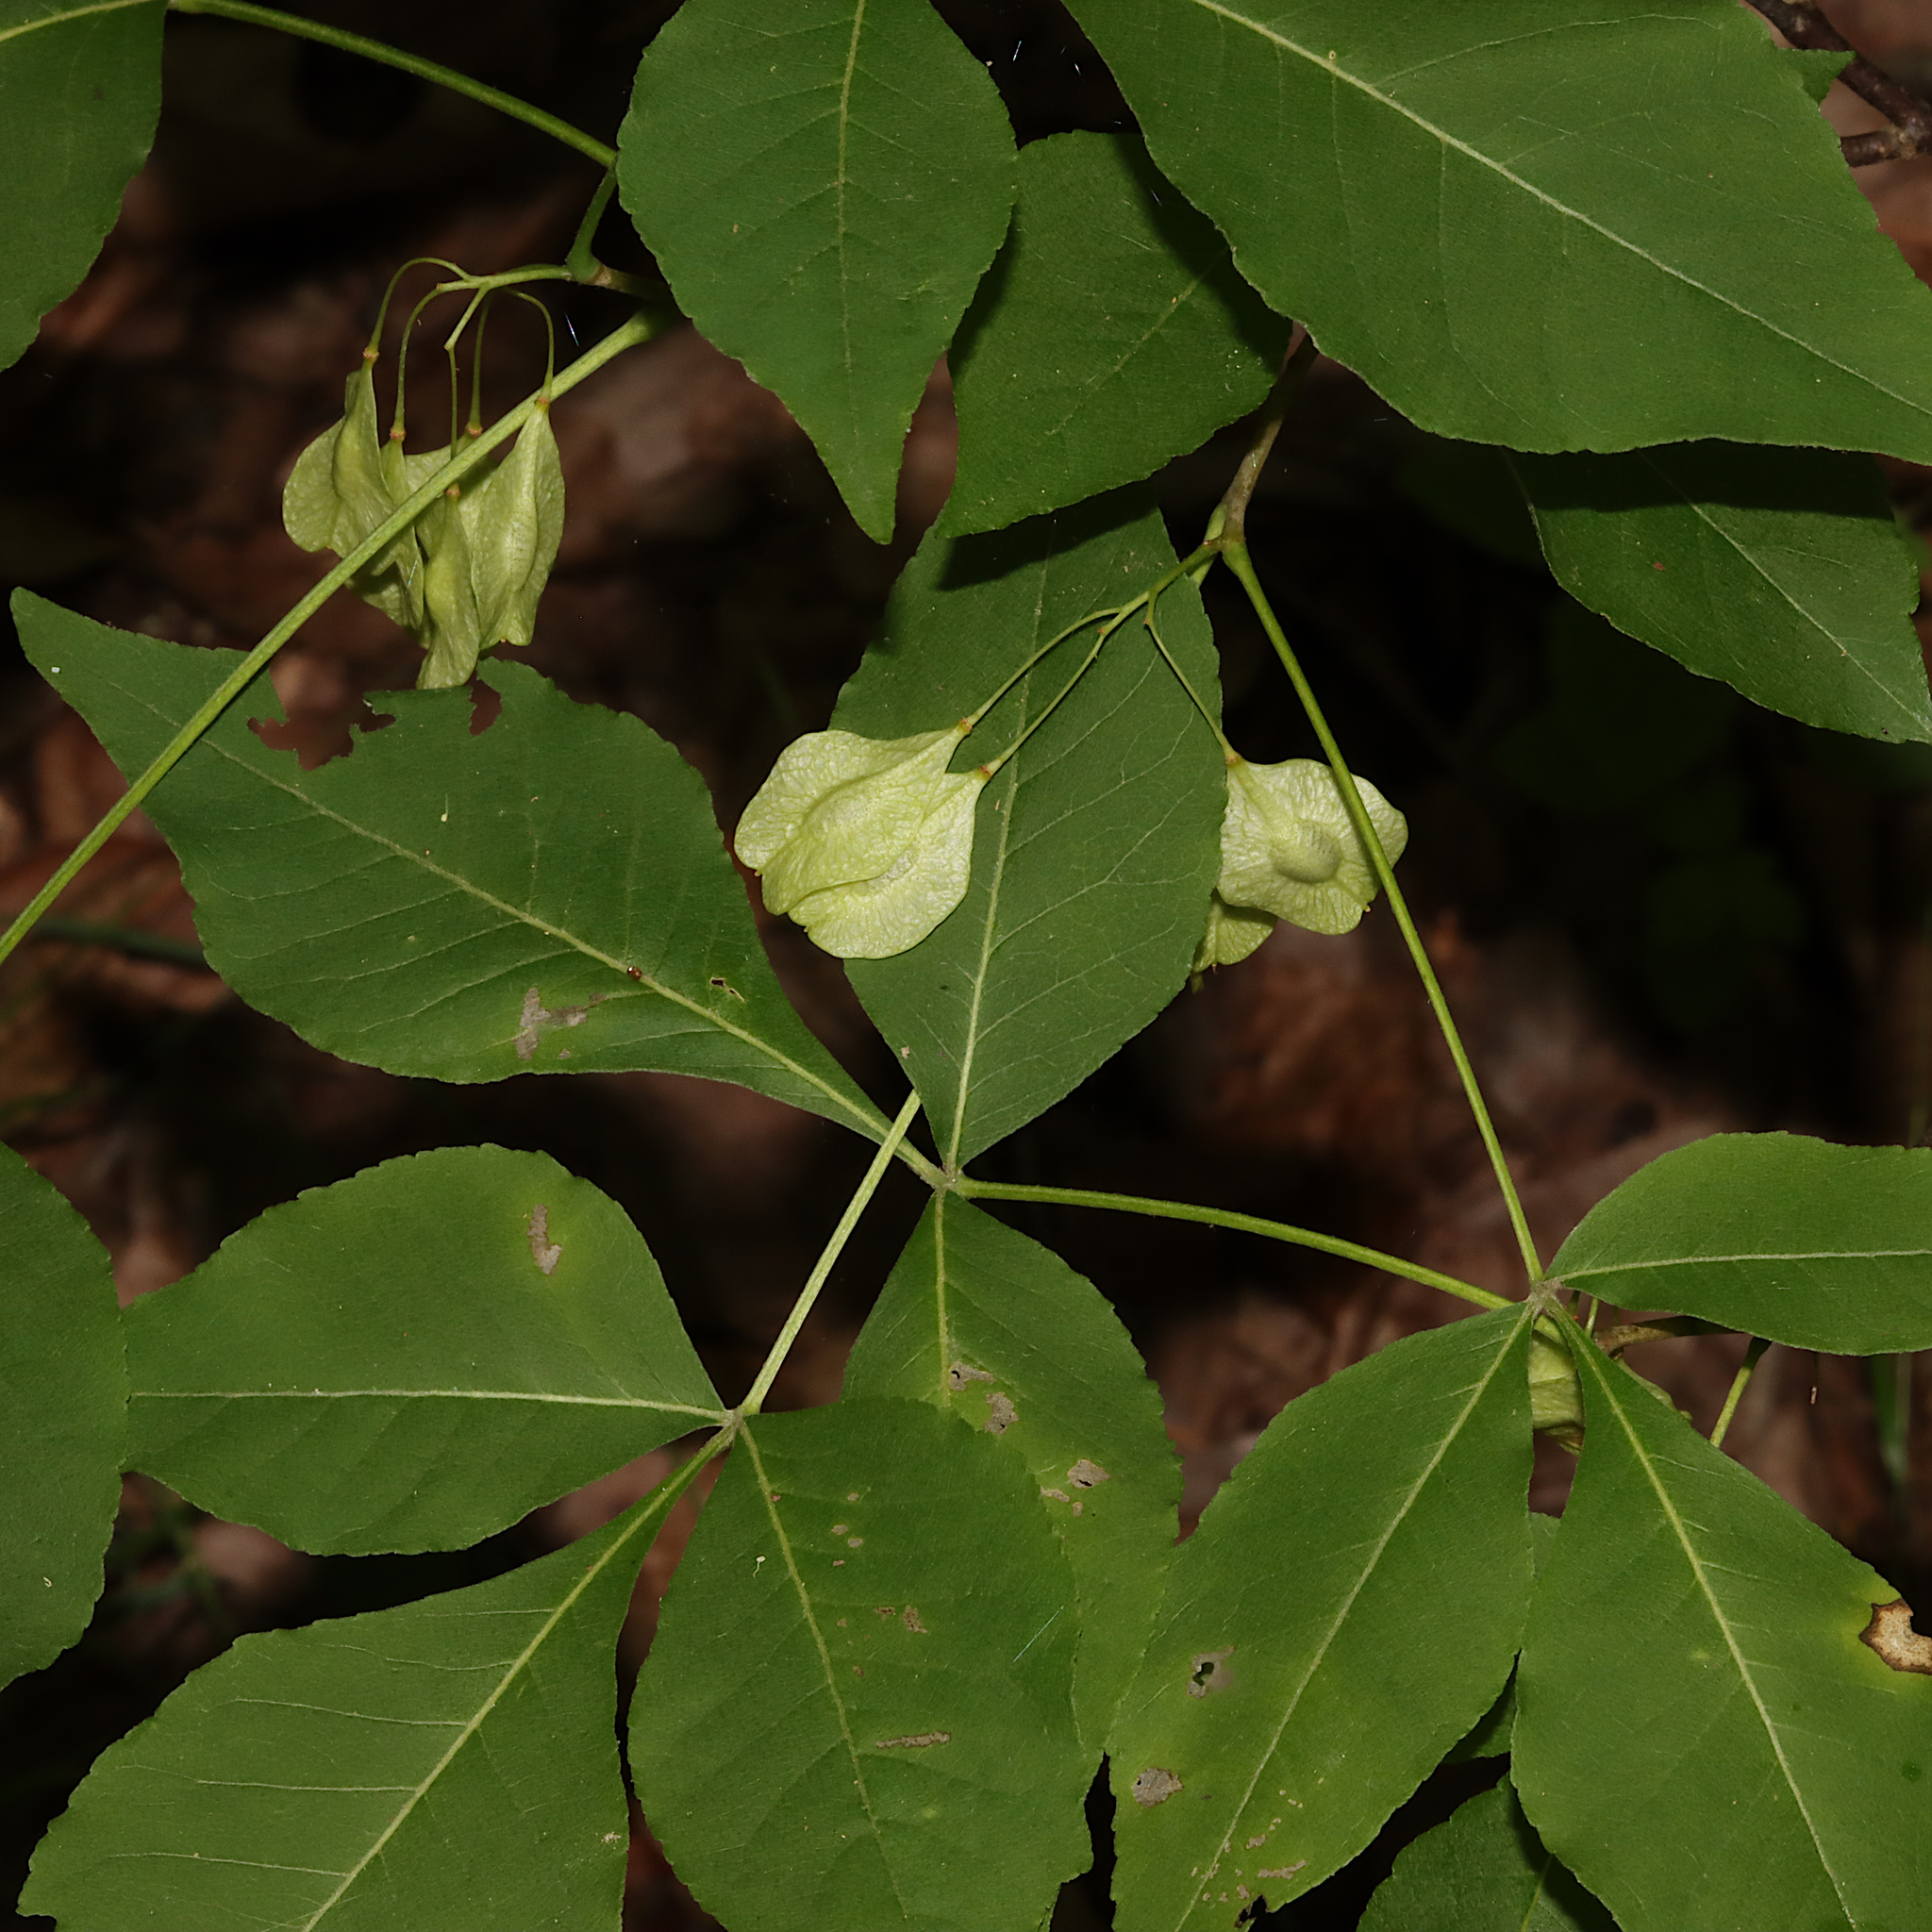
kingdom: Plantae
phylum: Tracheophyta
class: Magnoliopsida
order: Sapindales
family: Rutaceae
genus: Ptelea
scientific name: Ptelea trifoliata
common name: Common hop-tree
